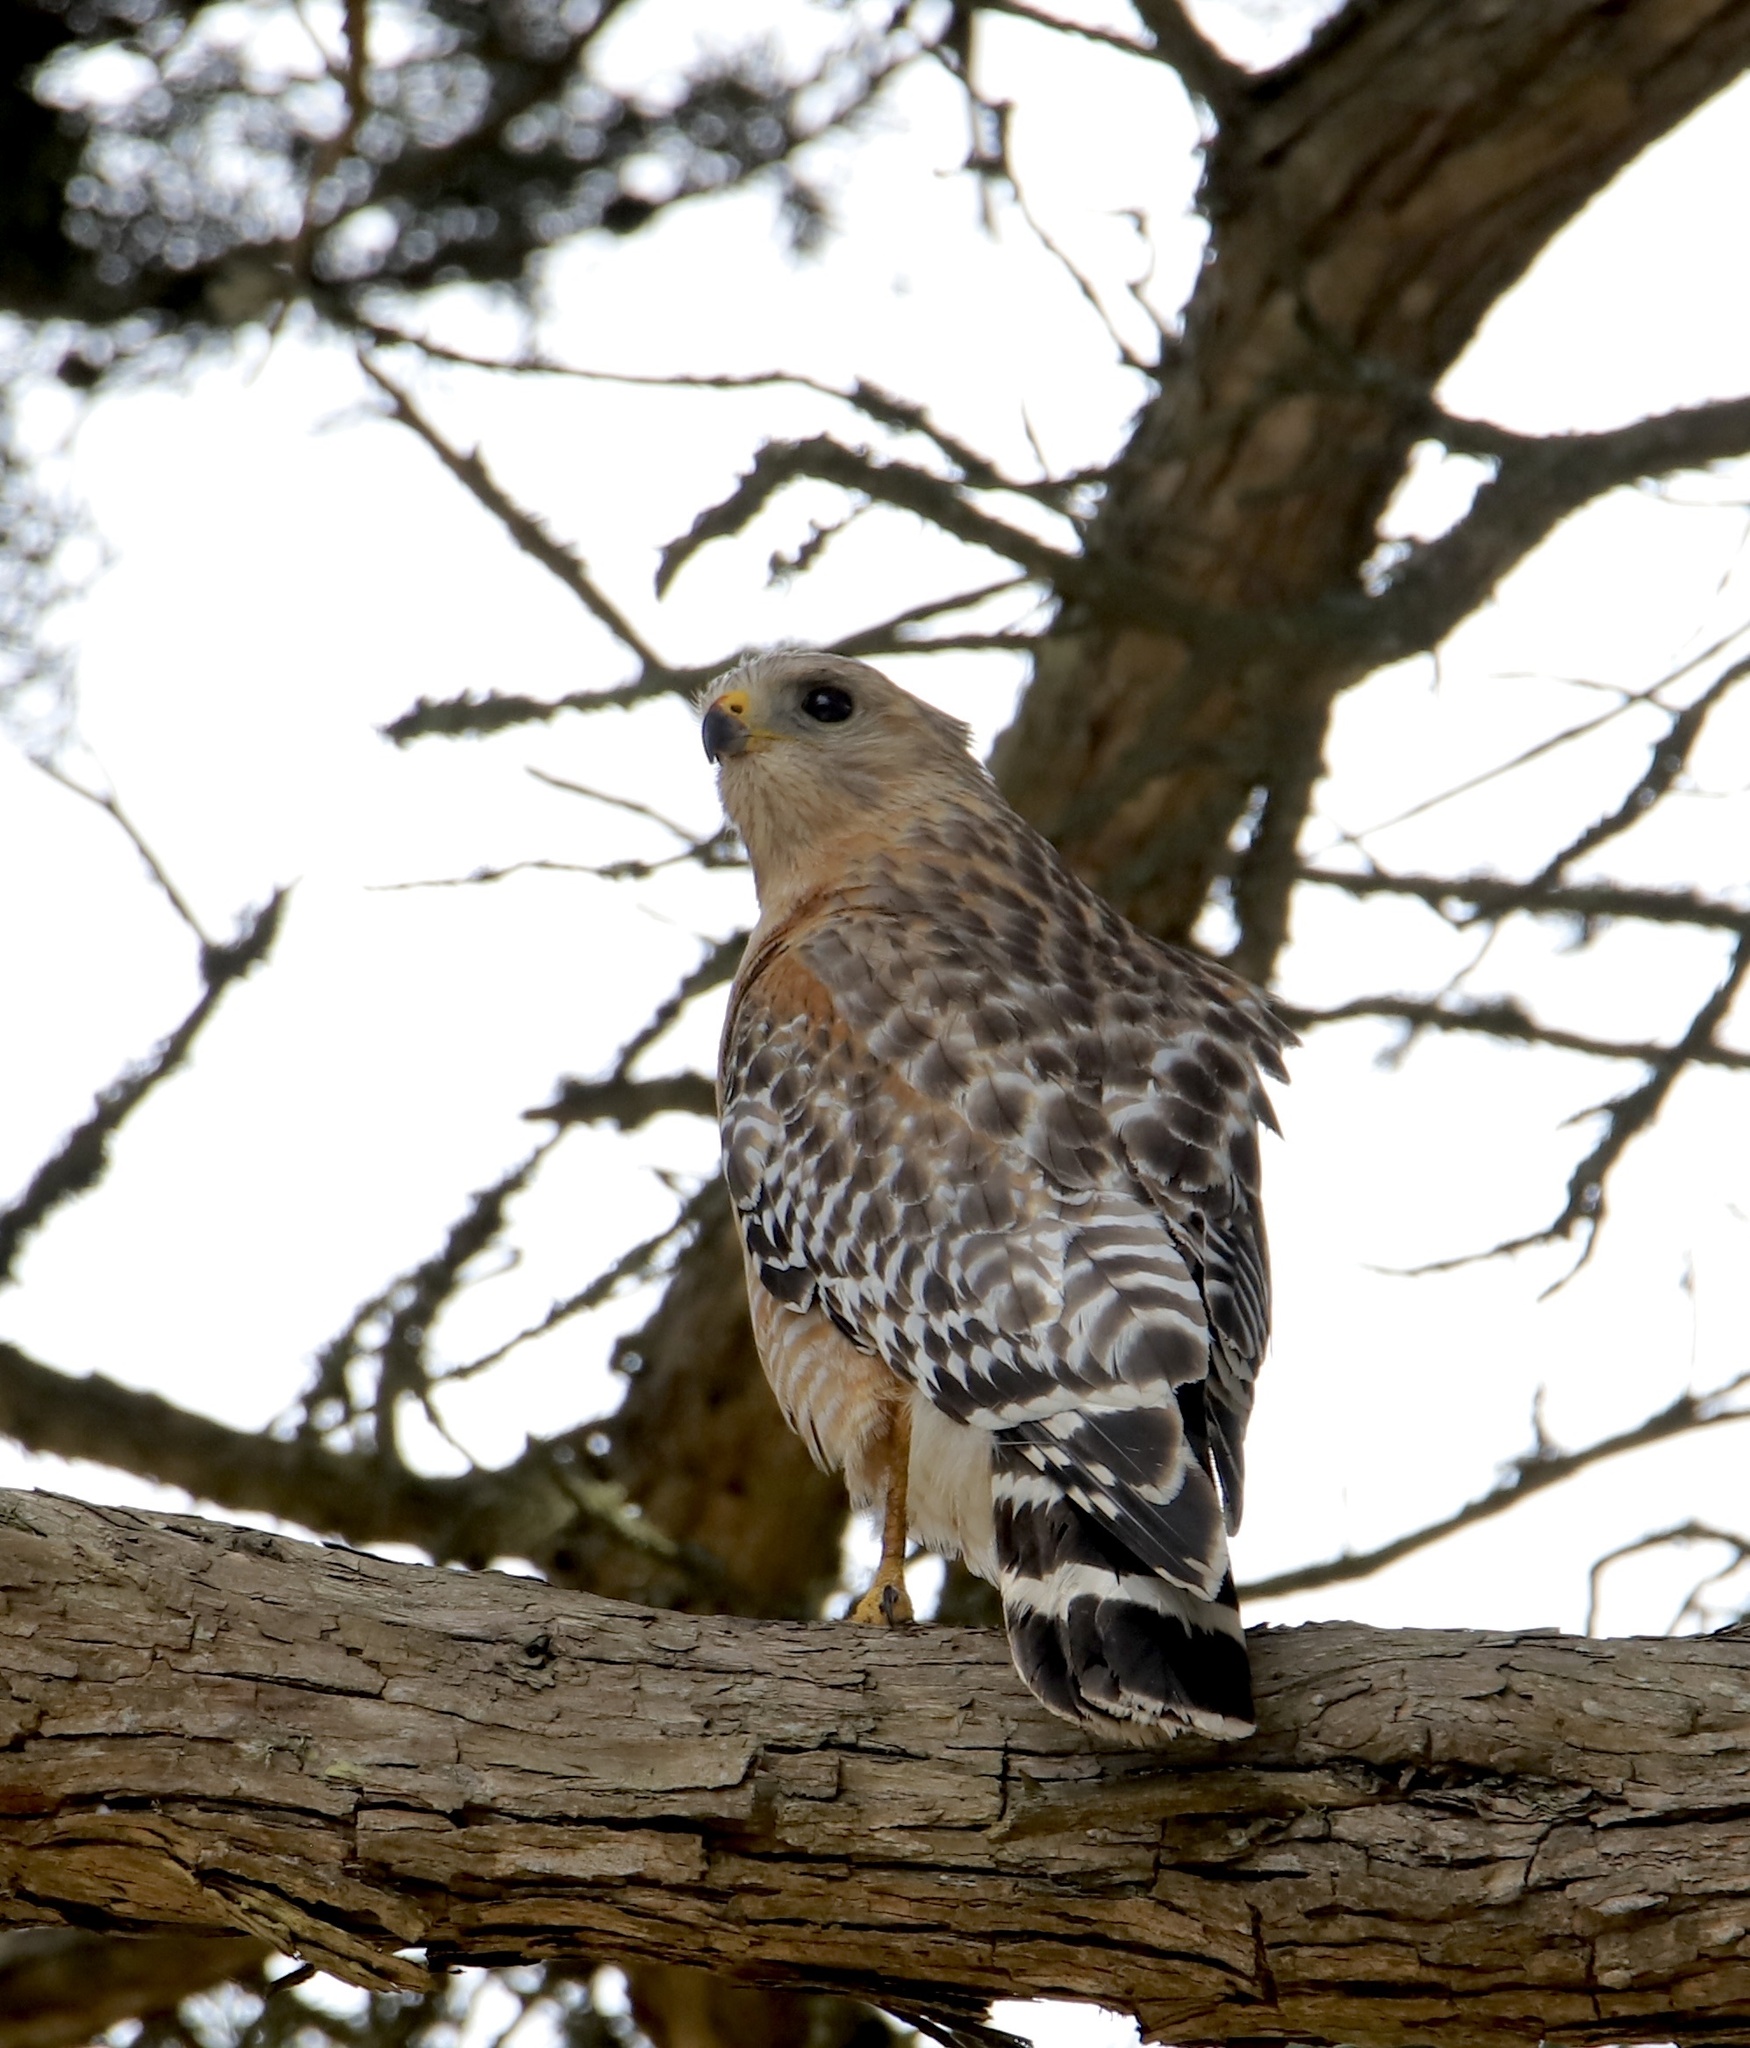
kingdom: Animalia
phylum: Chordata
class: Aves
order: Accipitriformes
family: Accipitridae
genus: Buteo
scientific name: Buteo lineatus
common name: Red-shouldered hawk
